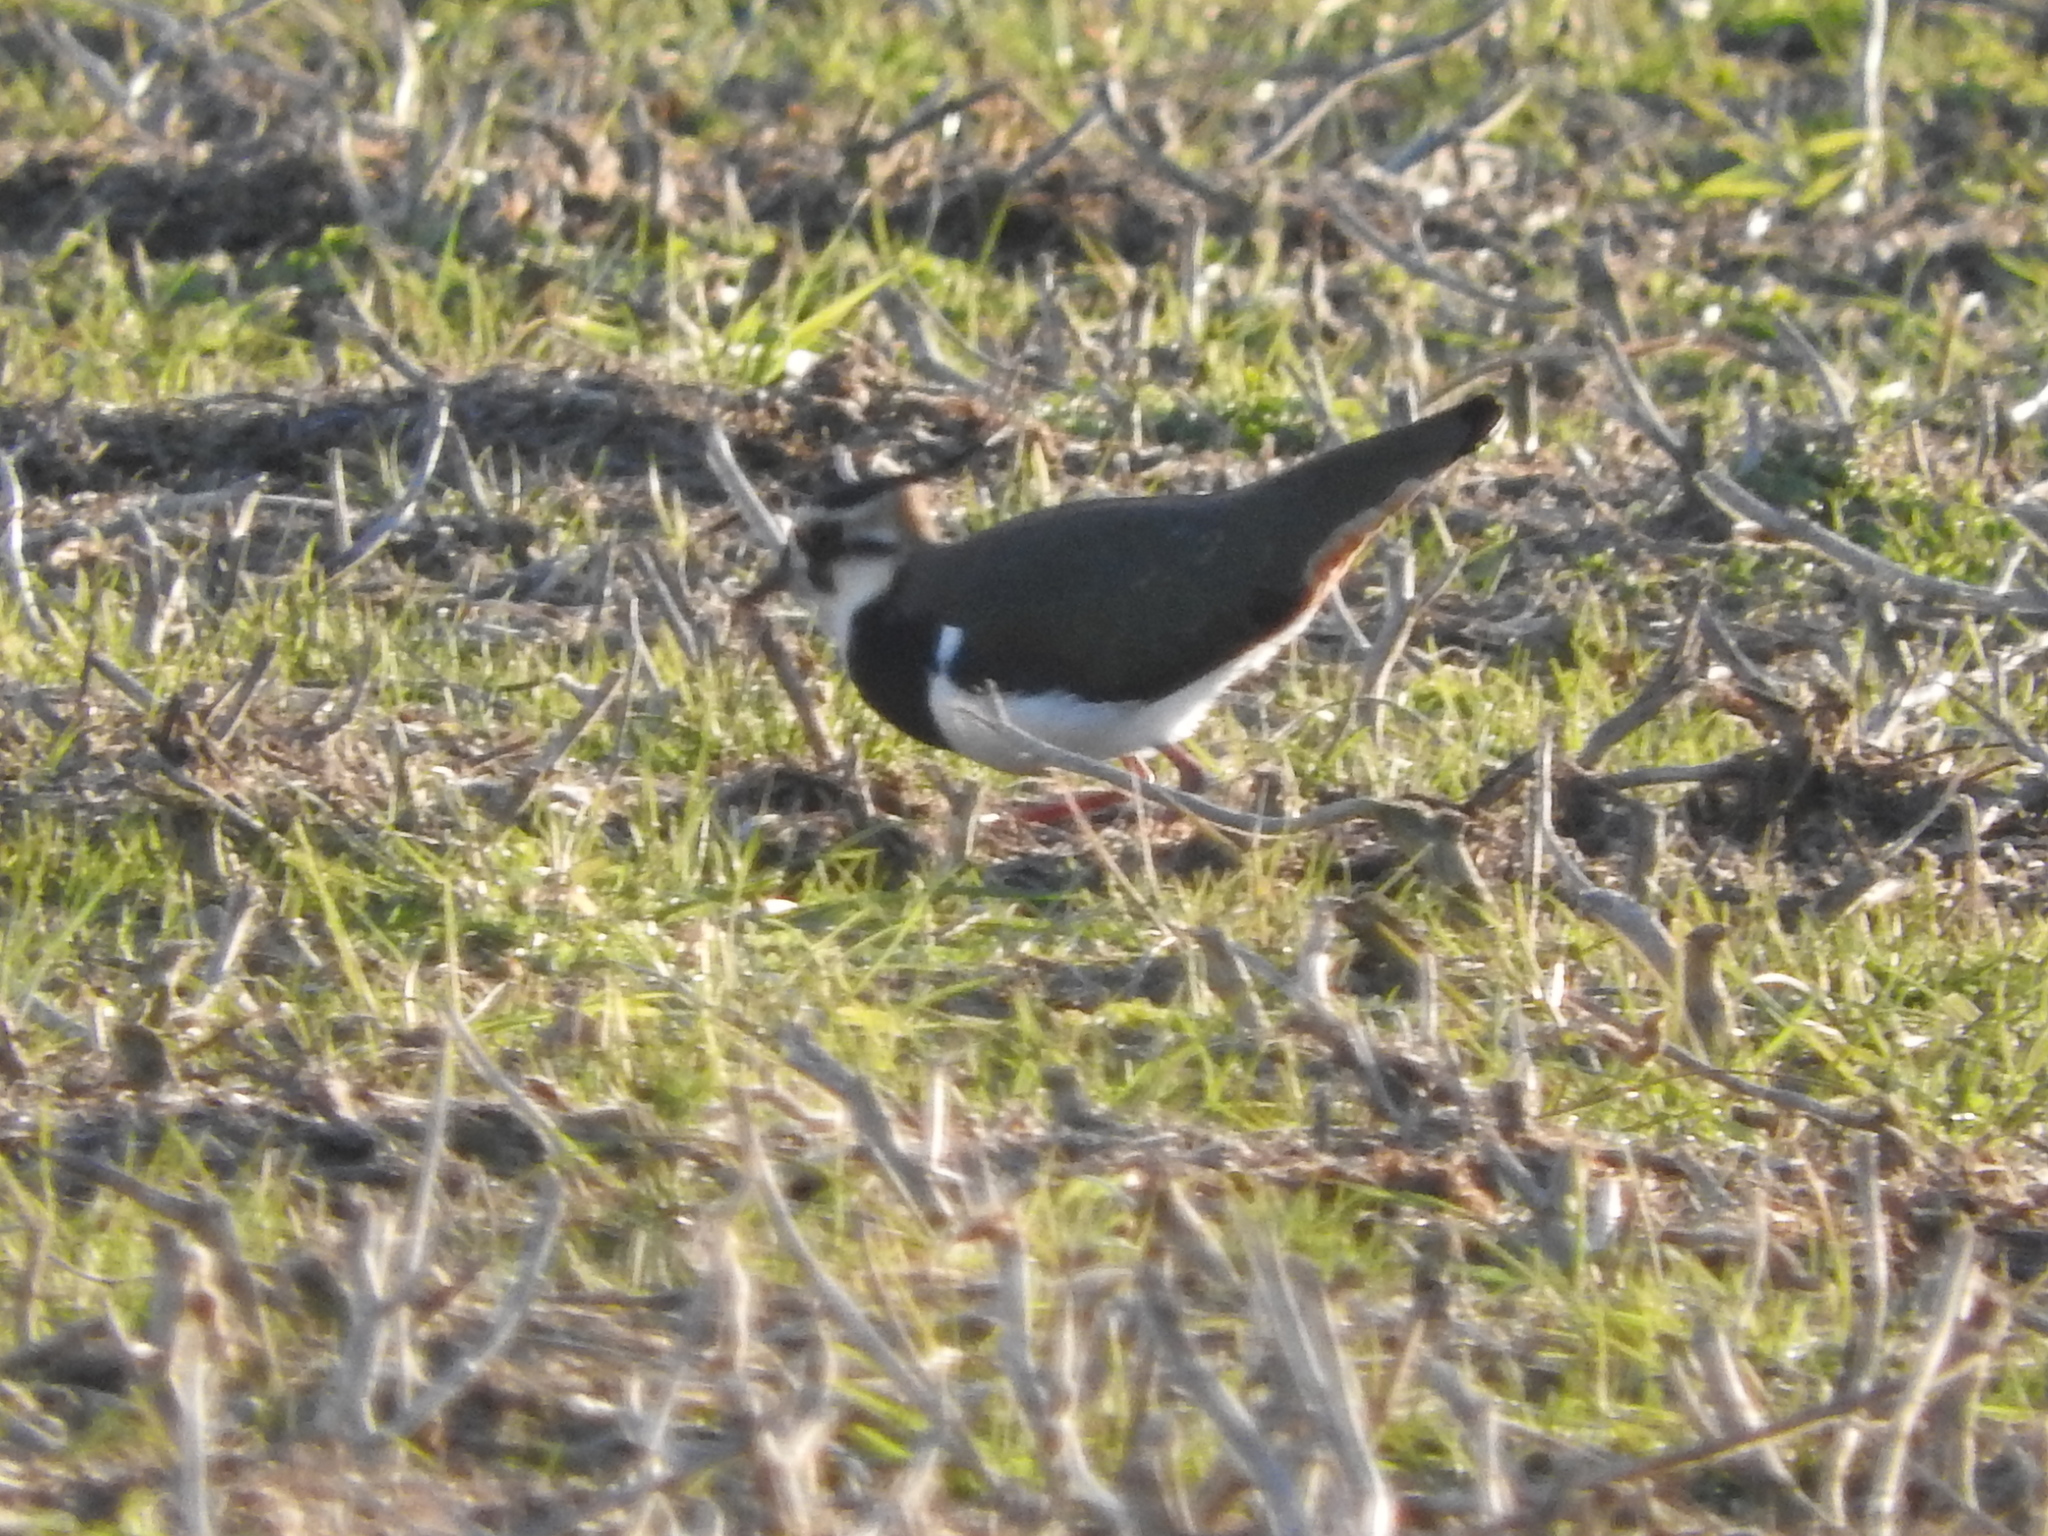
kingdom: Animalia
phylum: Chordata
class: Aves
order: Charadriiformes
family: Charadriidae
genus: Vanellus
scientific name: Vanellus vanellus
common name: Northern lapwing
